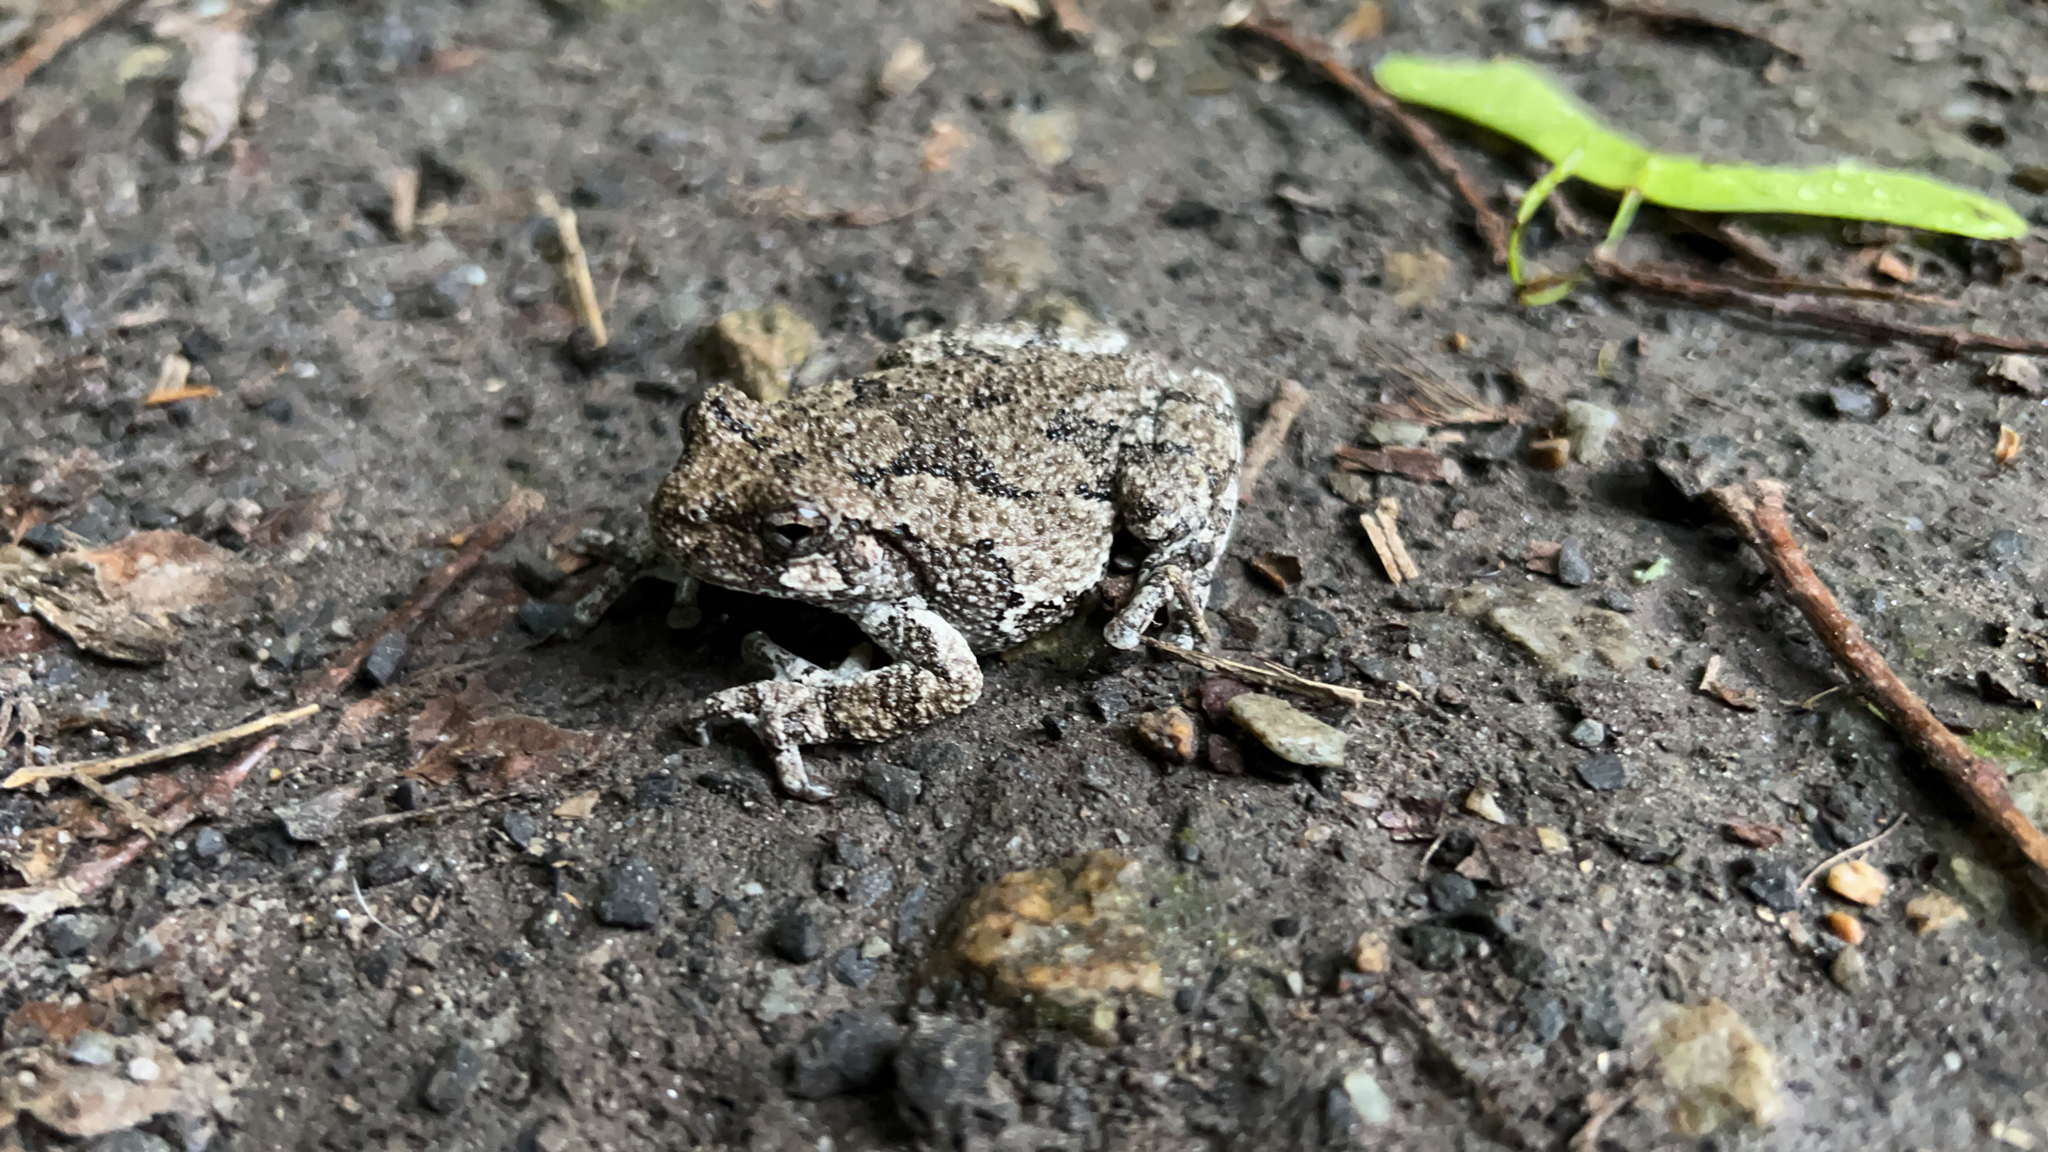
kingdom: Animalia
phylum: Chordata
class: Amphibia
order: Anura
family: Hylidae
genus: Dryophytes
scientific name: Dryophytes versicolor
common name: Gray treefrog
